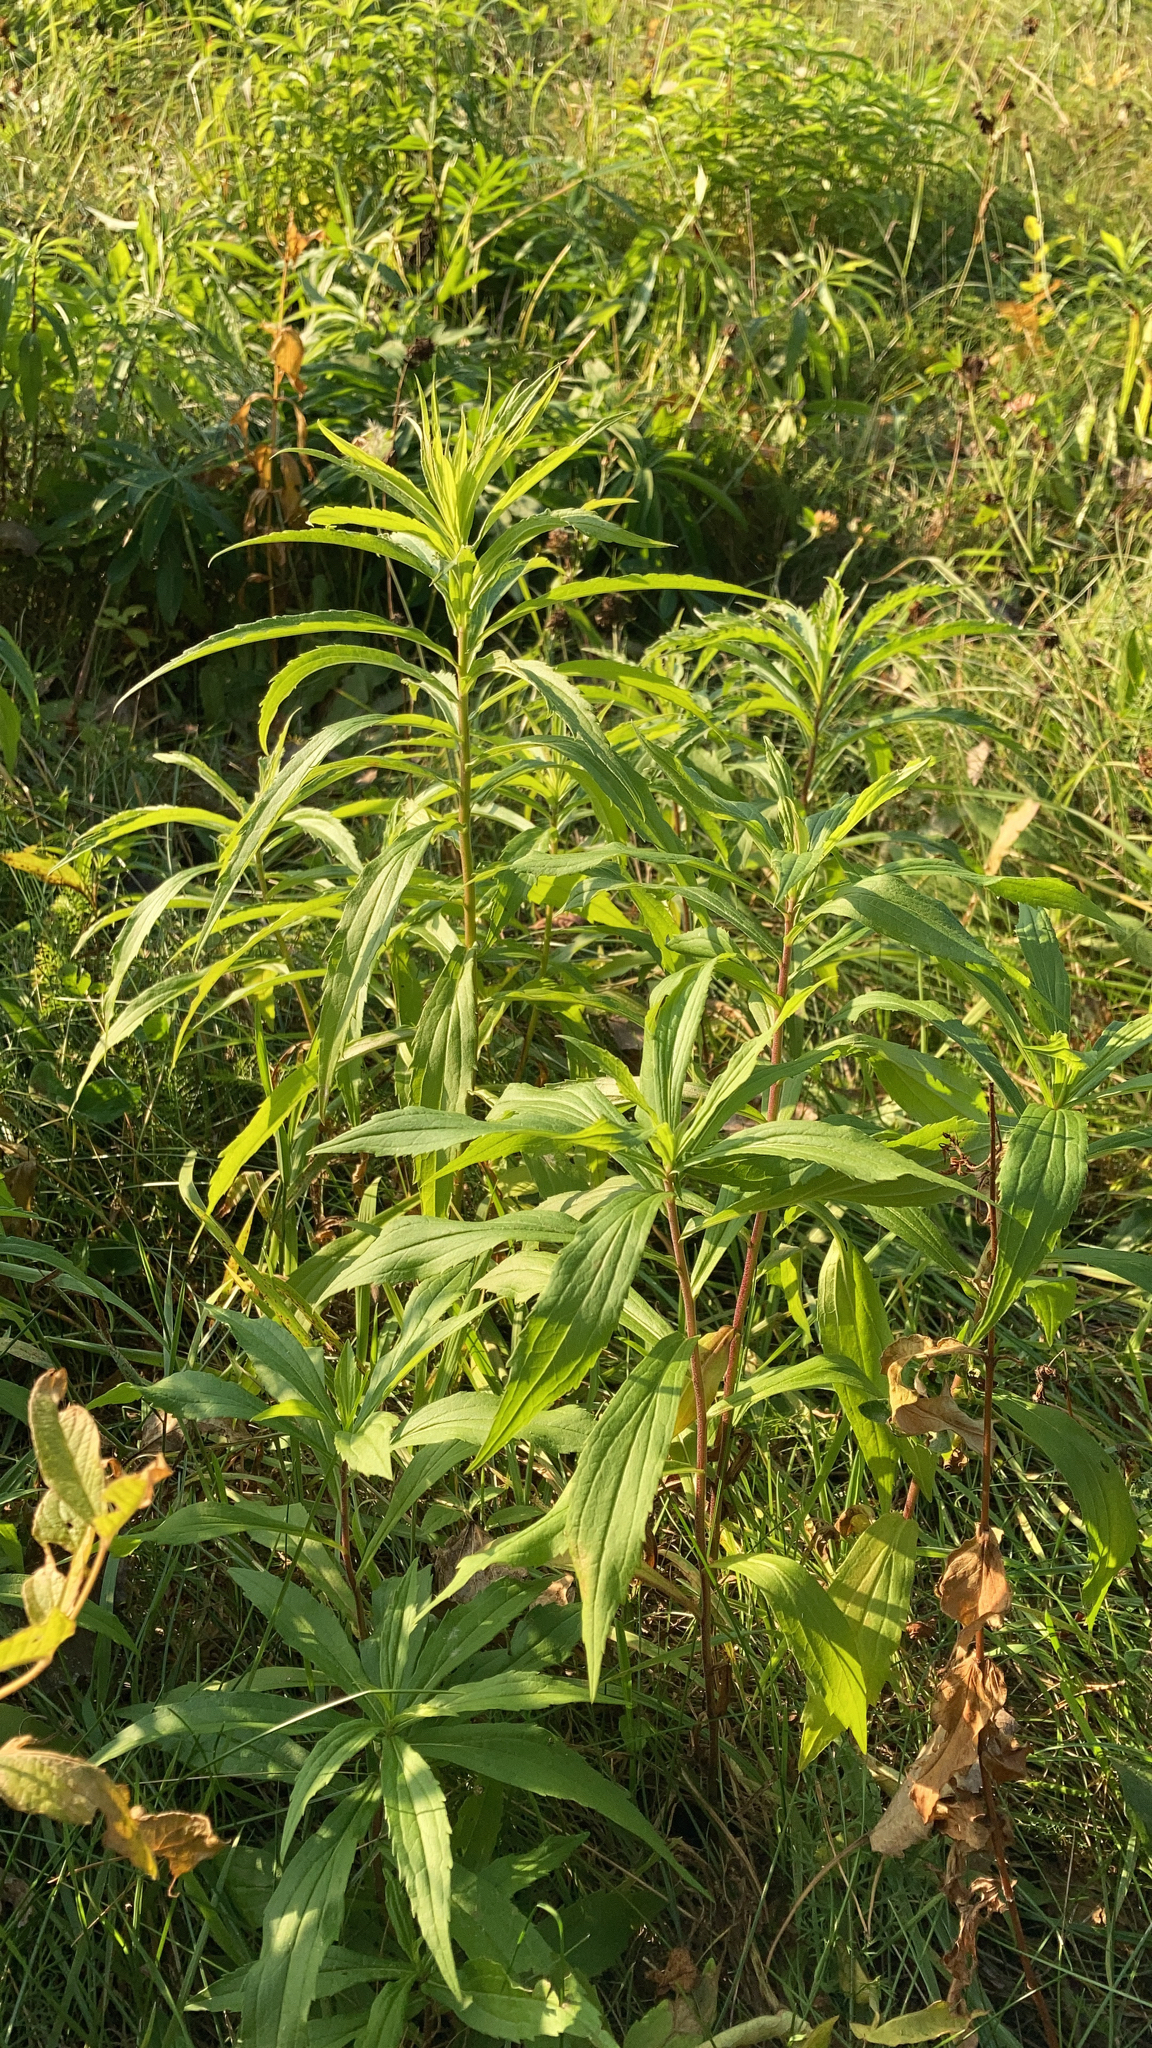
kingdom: Plantae
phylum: Tracheophyta
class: Magnoliopsida
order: Asterales
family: Asteraceae
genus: Solidago
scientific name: Solidago canadensis
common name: Canada goldenrod
